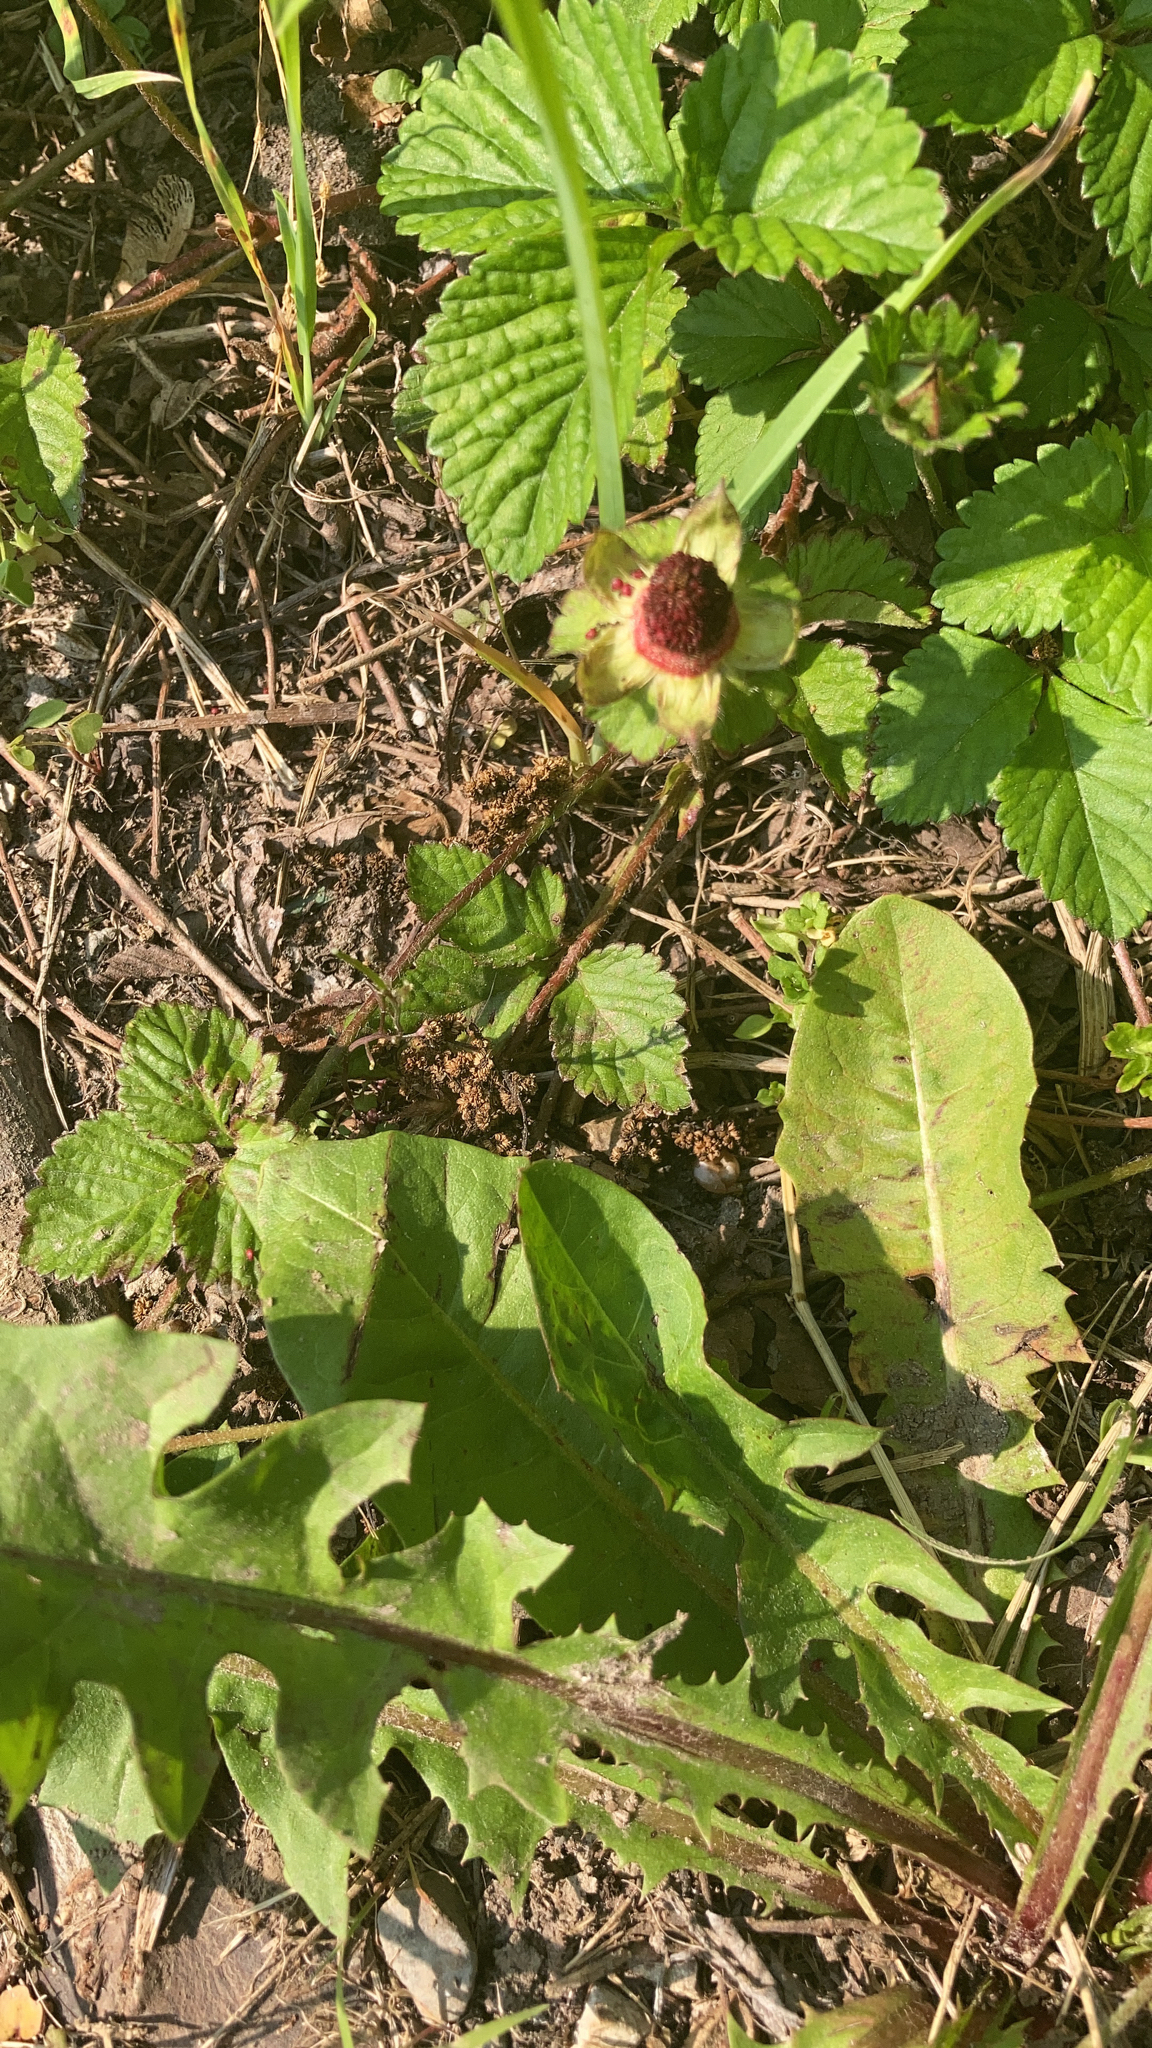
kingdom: Plantae
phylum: Tracheophyta
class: Magnoliopsida
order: Rosales
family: Rosaceae
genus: Potentilla
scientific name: Potentilla indica
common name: Yellow-flowered strawberry
